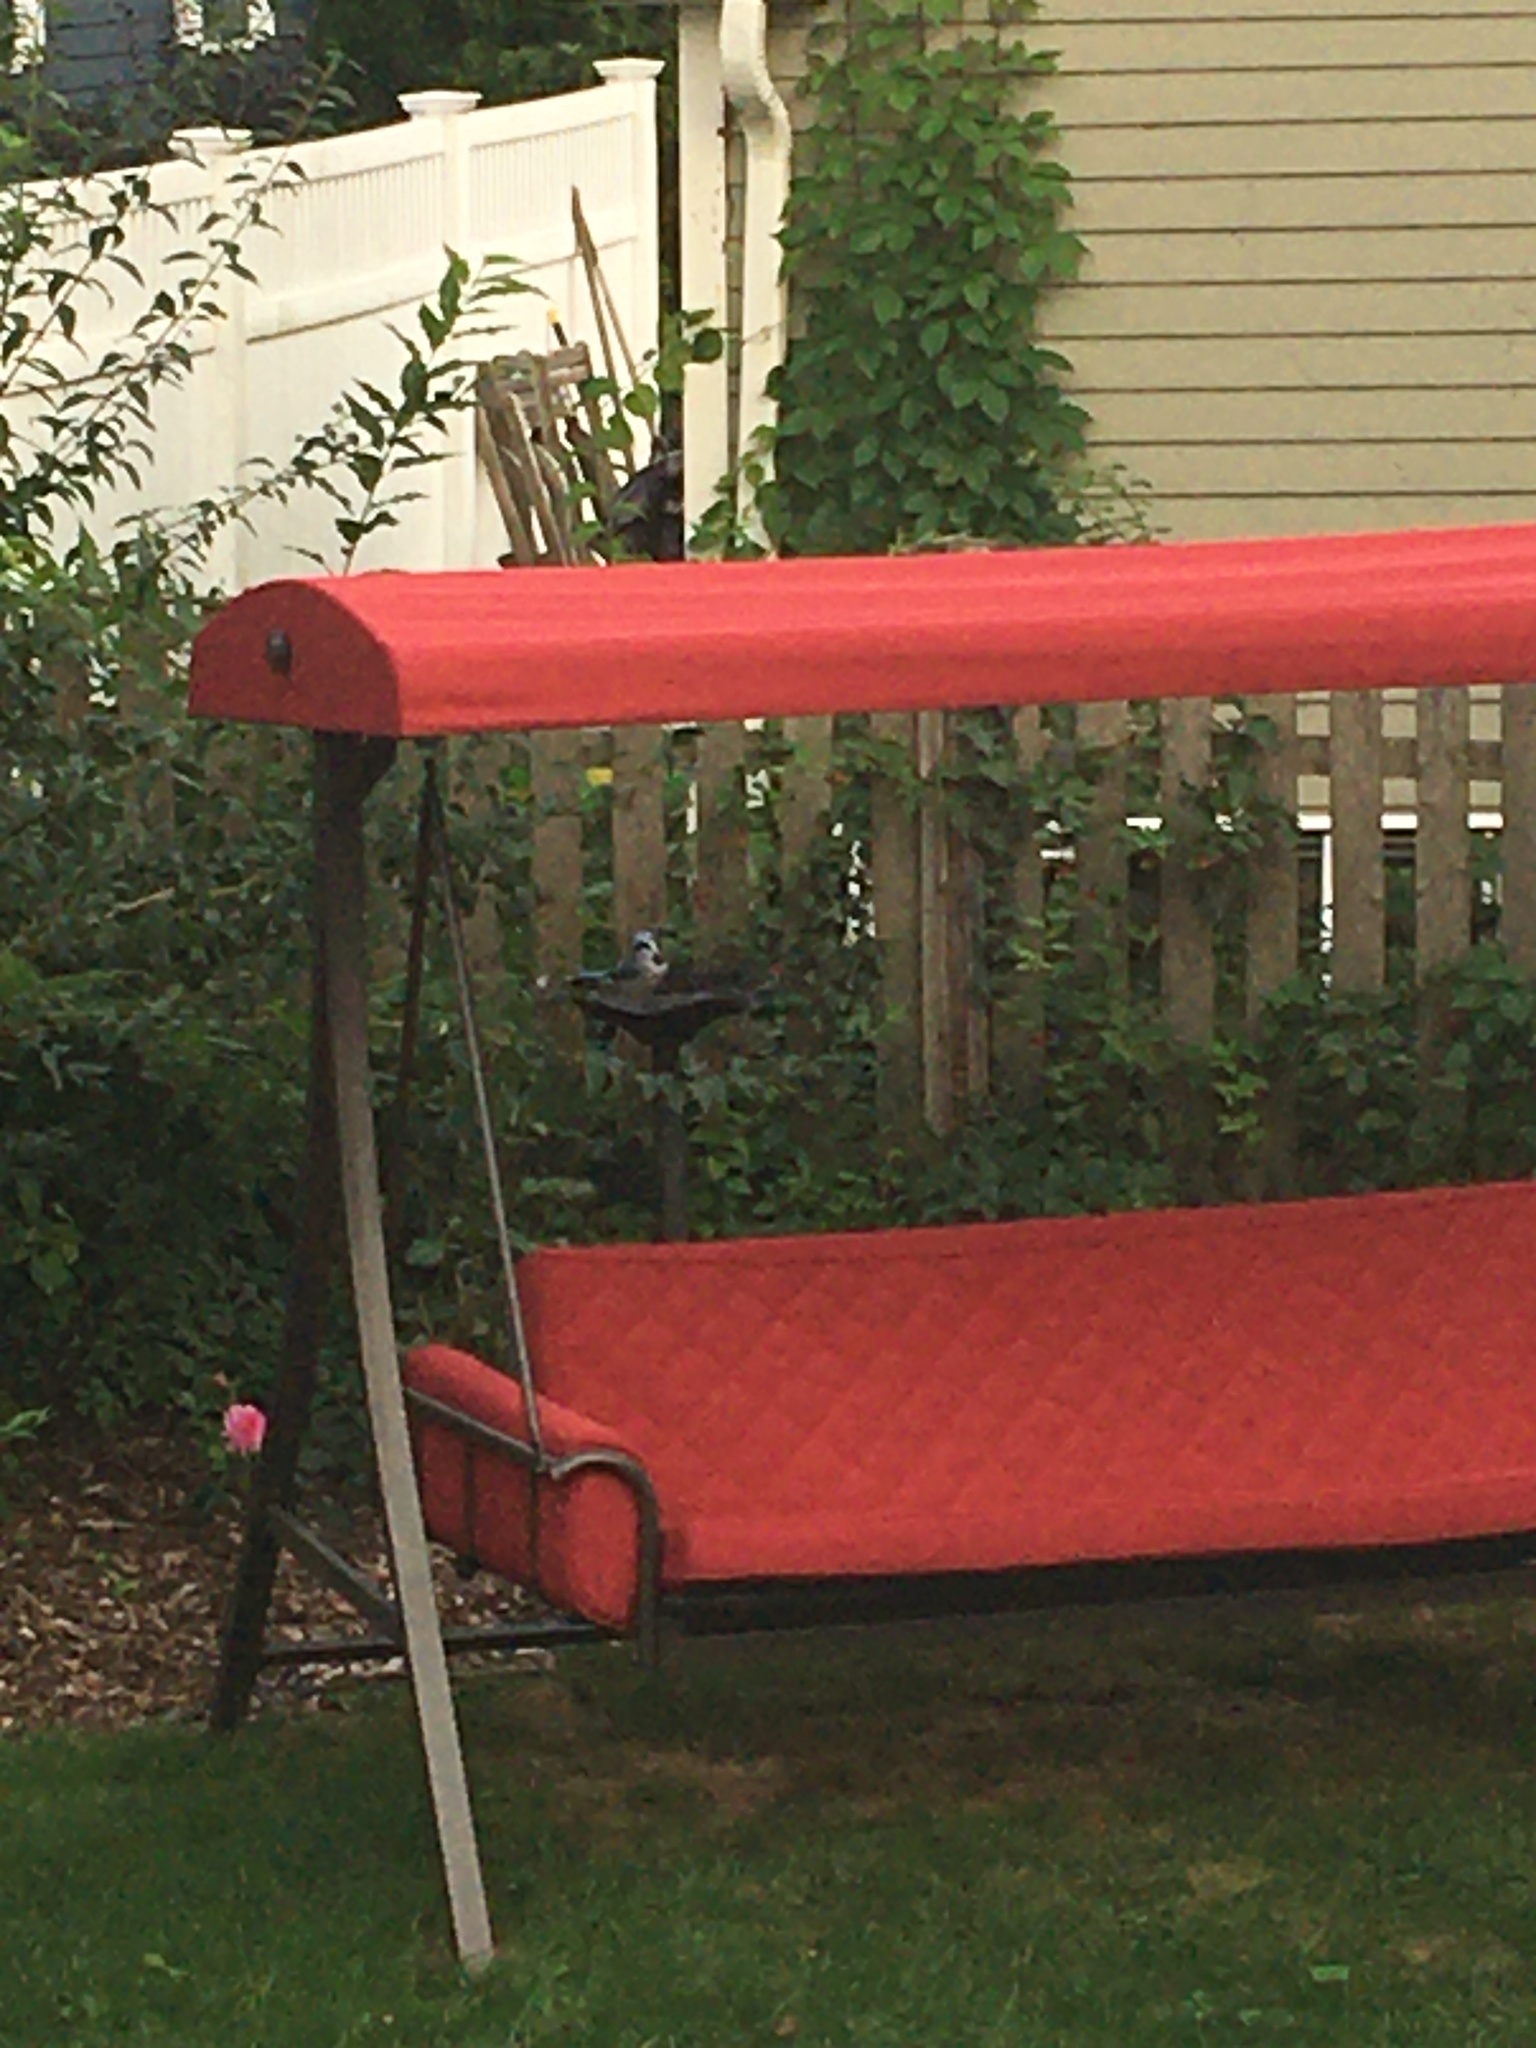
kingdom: Animalia
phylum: Chordata
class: Aves
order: Passeriformes
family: Corvidae
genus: Cyanocitta
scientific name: Cyanocitta cristata
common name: Blue jay
